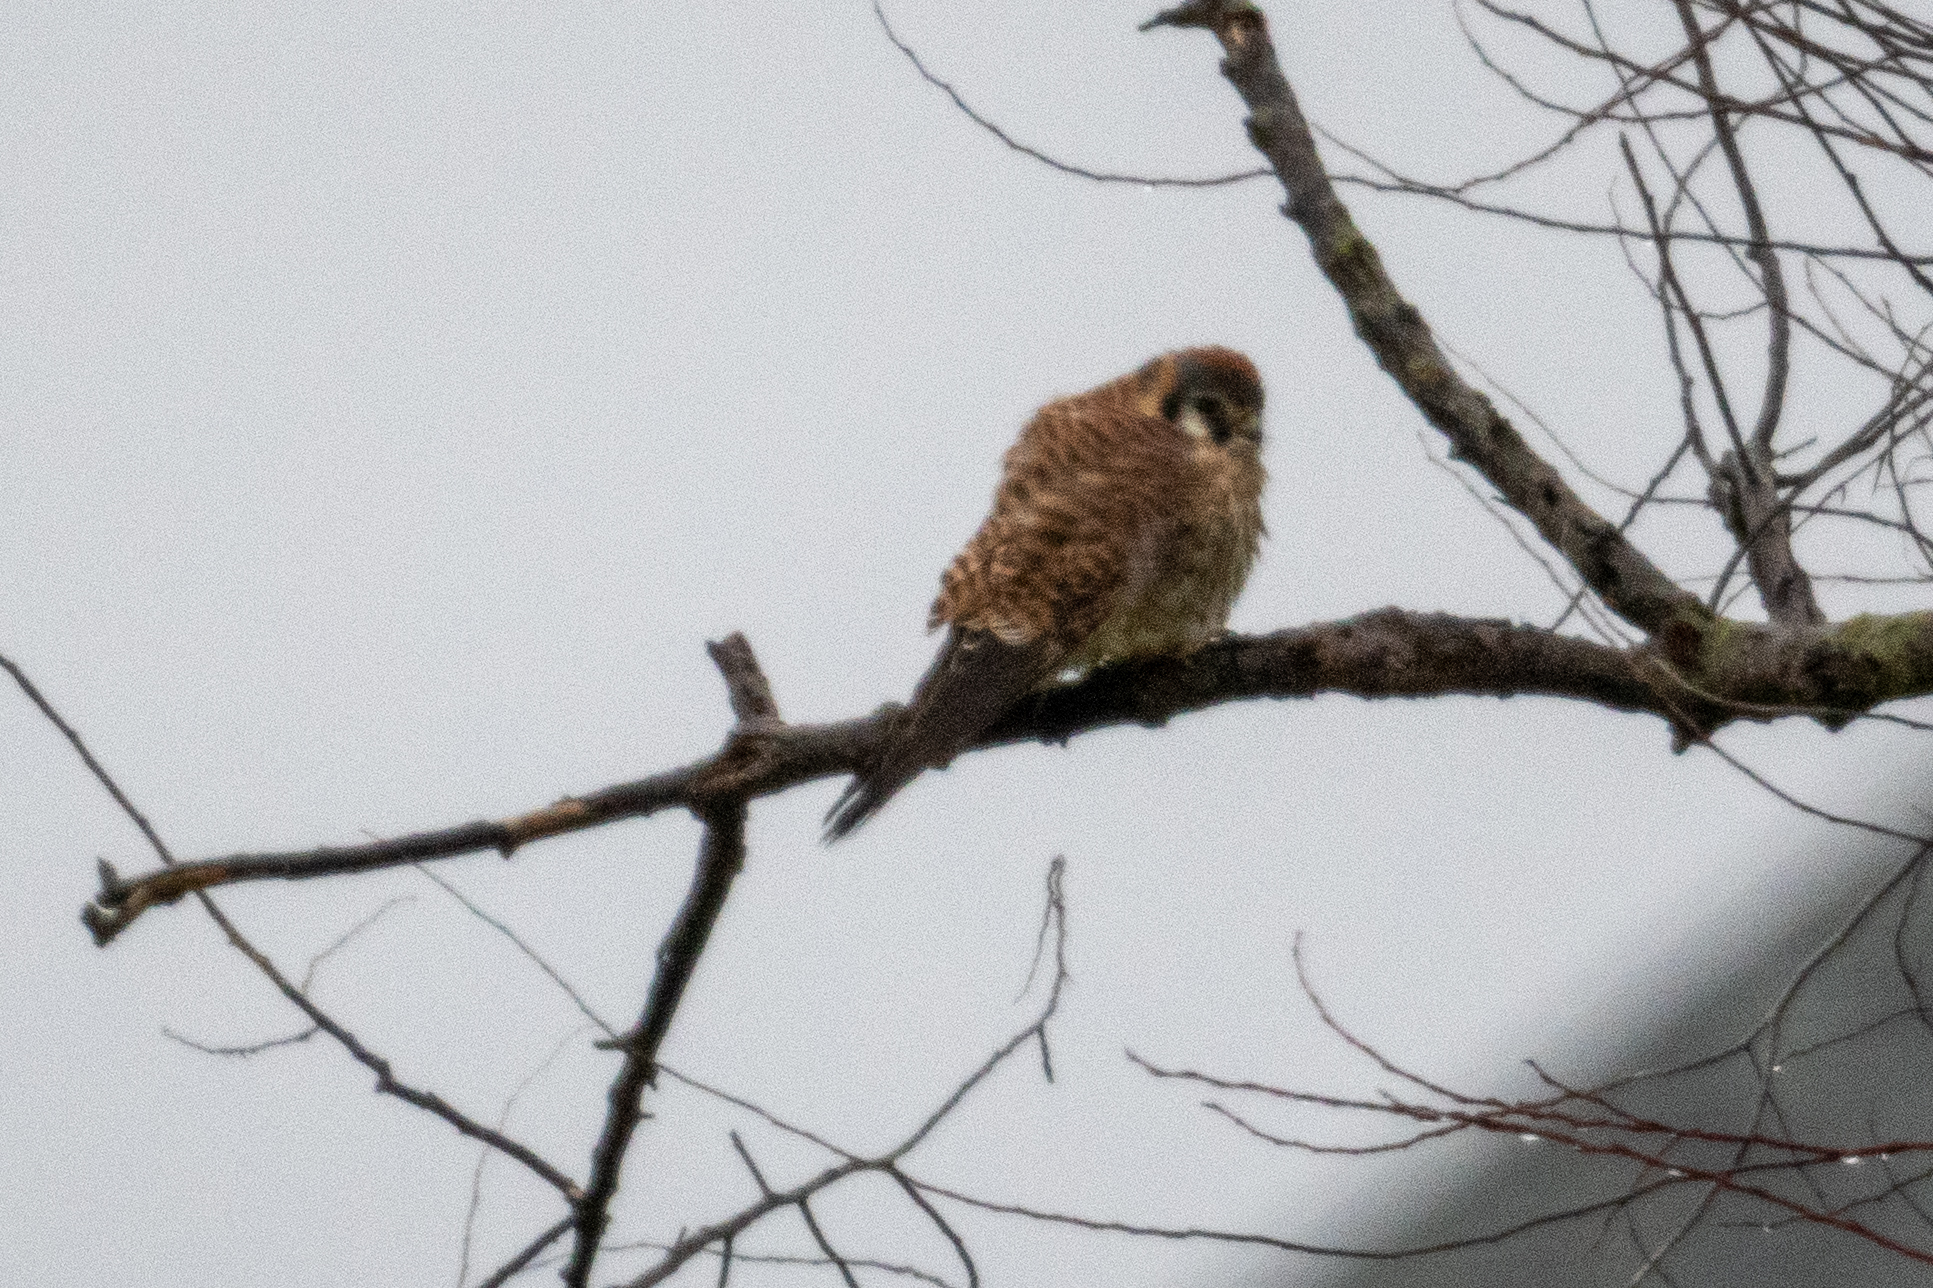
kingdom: Animalia
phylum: Chordata
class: Aves
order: Falconiformes
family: Falconidae
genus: Falco
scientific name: Falco sparverius
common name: American kestrel
